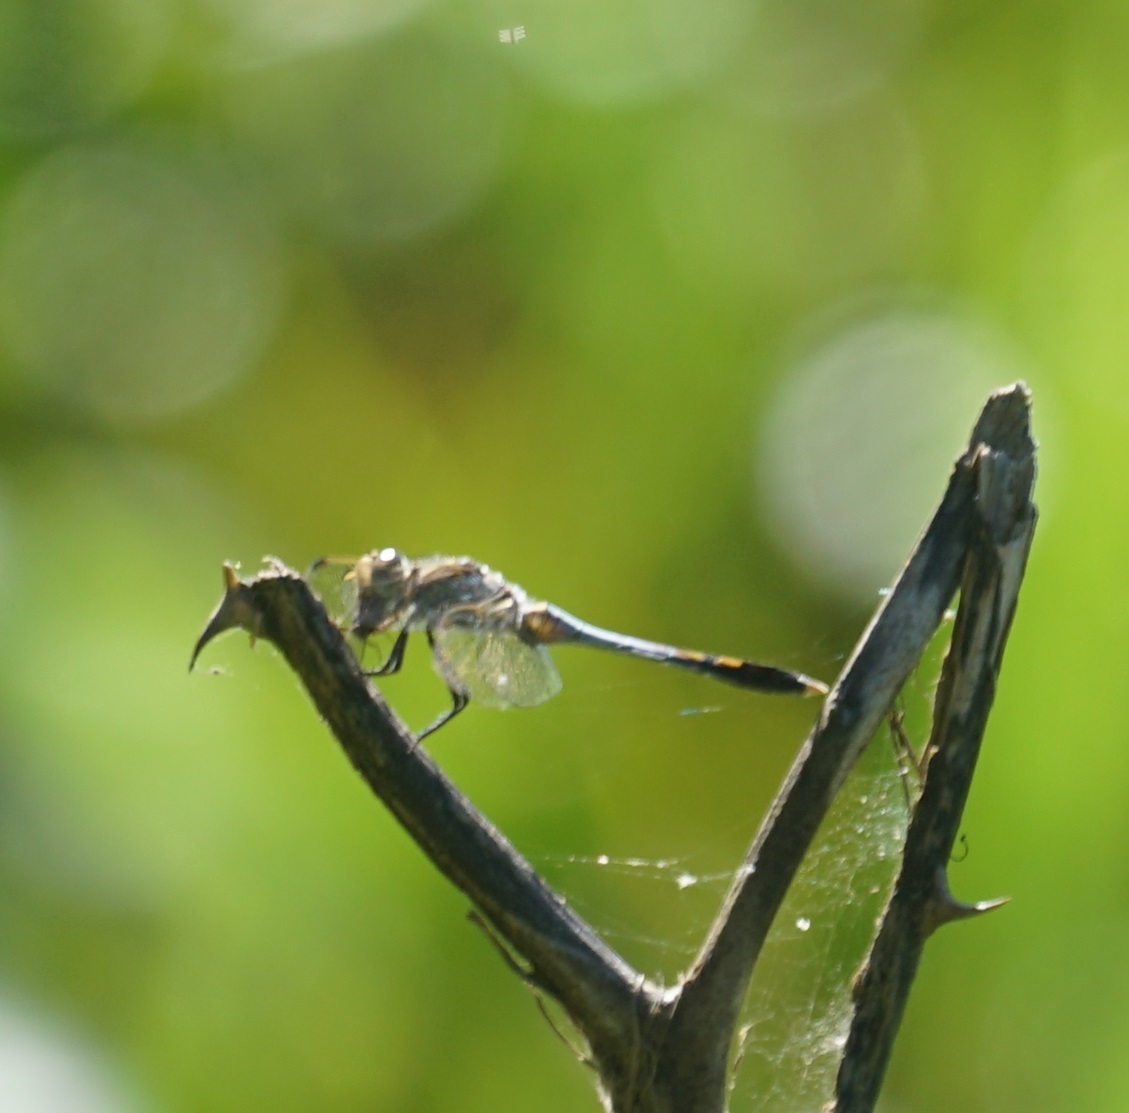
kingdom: Animalia
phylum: Arthropoda
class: Insecta
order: Odonata
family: Libellulidae
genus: Orthetrum
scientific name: Orthetrum caledonicum
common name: Blue skimmer
